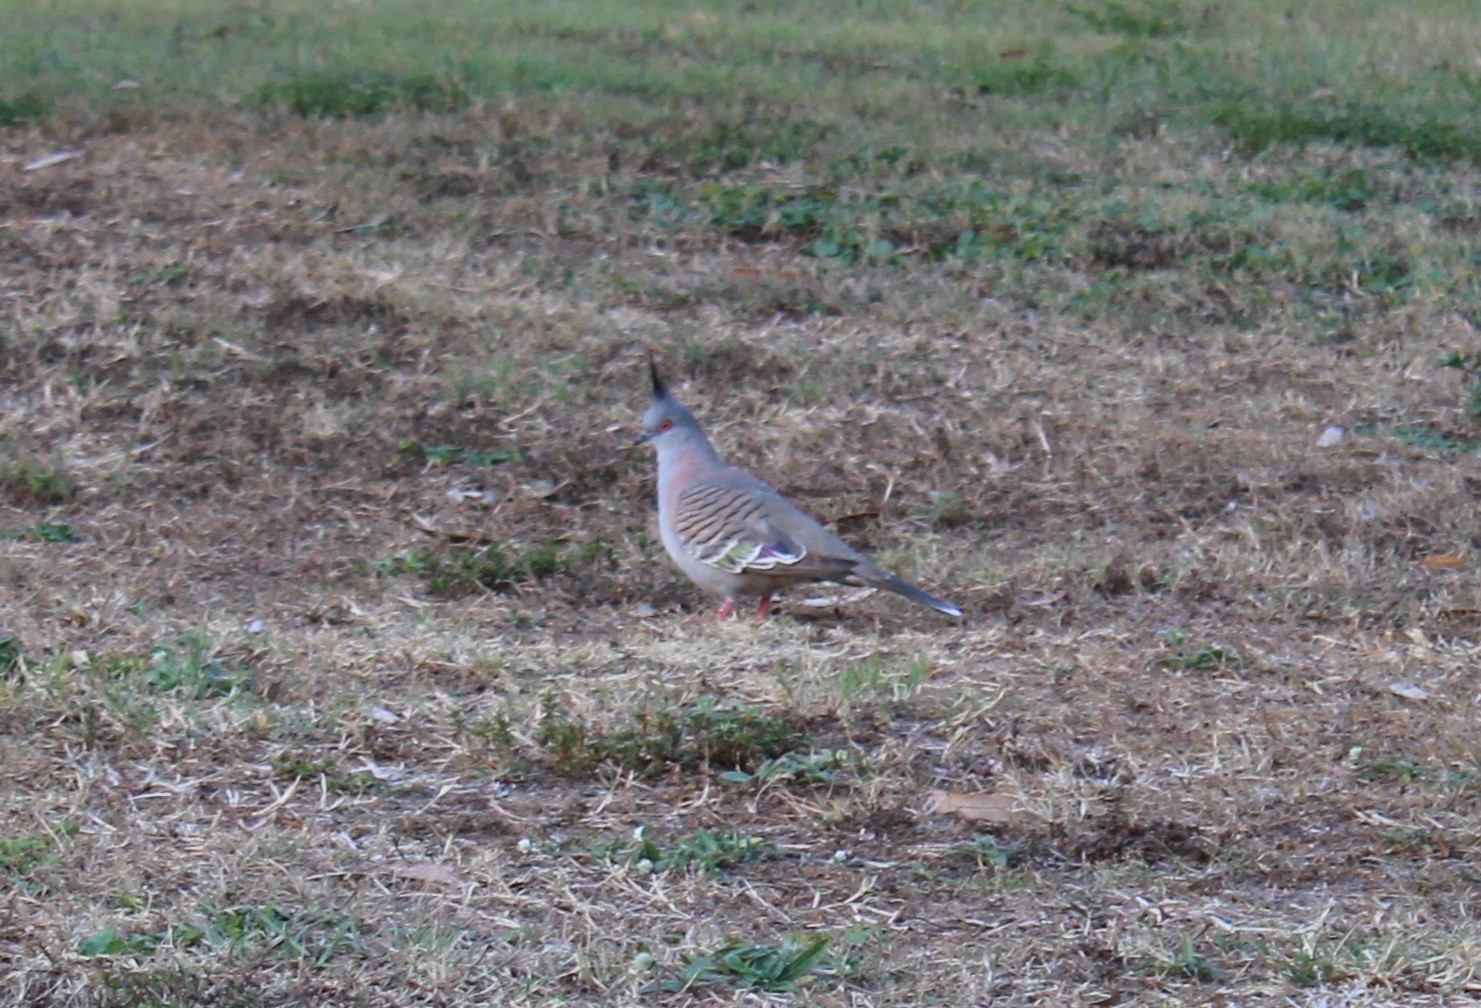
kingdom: Animalia
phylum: Chordata
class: Aves
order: Columbiformes
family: Columbidae
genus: Ocyphaps
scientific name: Ocyphaps lophotes
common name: Crested pigeon
